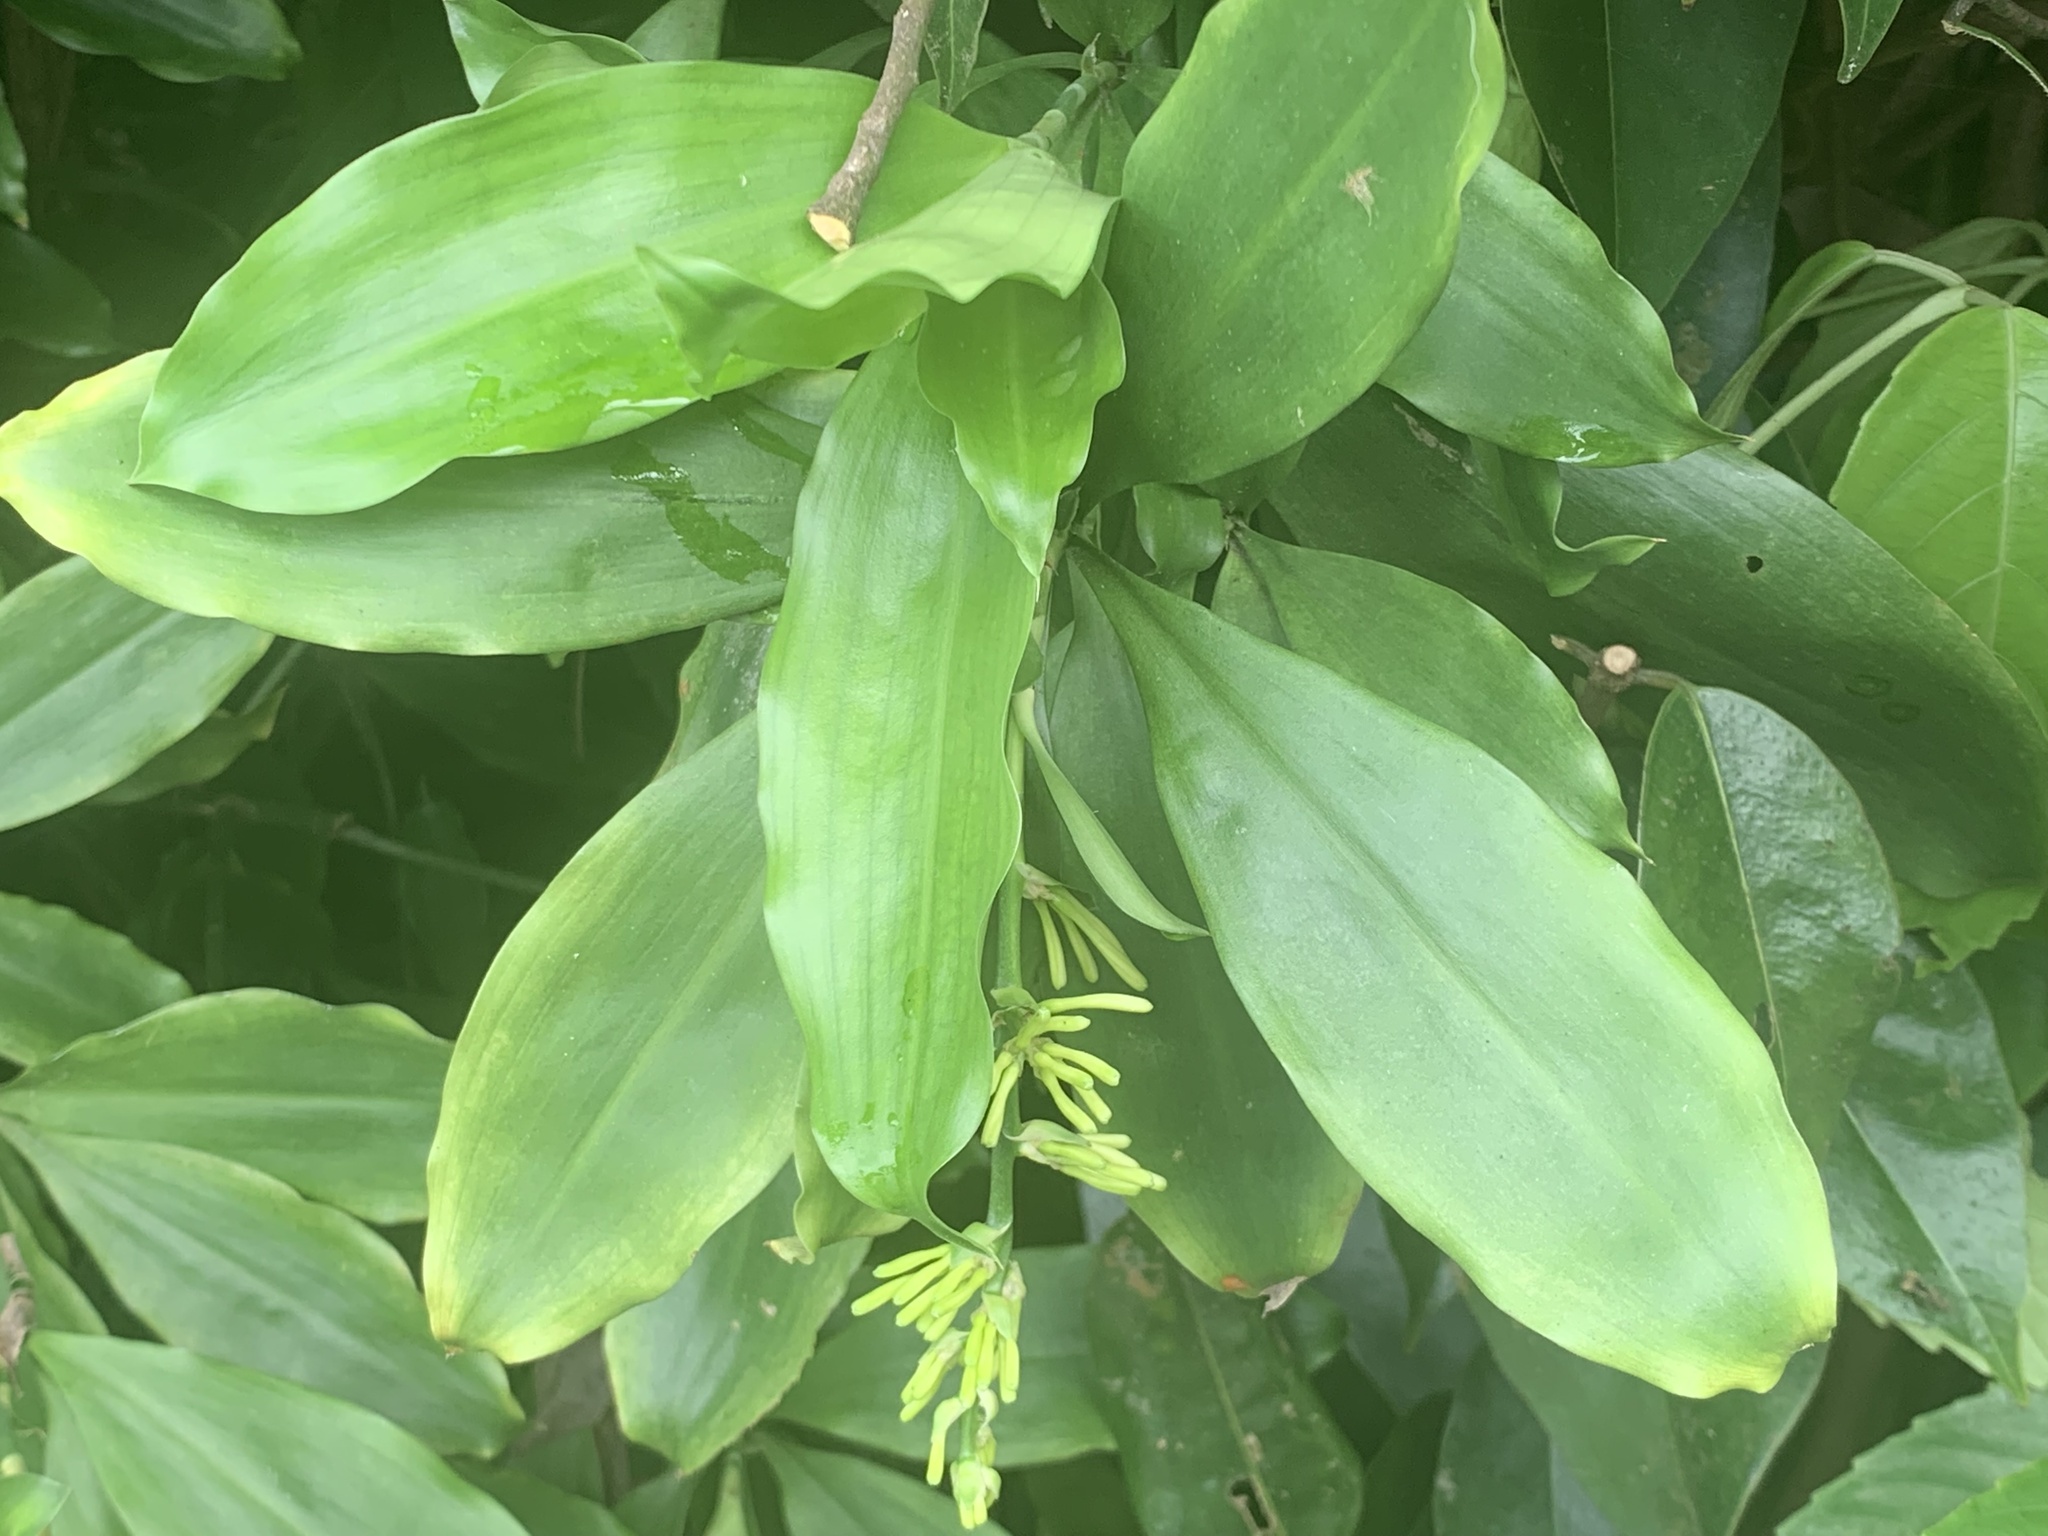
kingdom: Plantae
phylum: Tracheophyta
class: Liliopsida
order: Asparagales
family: Asparagaceae
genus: Dracaena
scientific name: Dracaena umbratica
